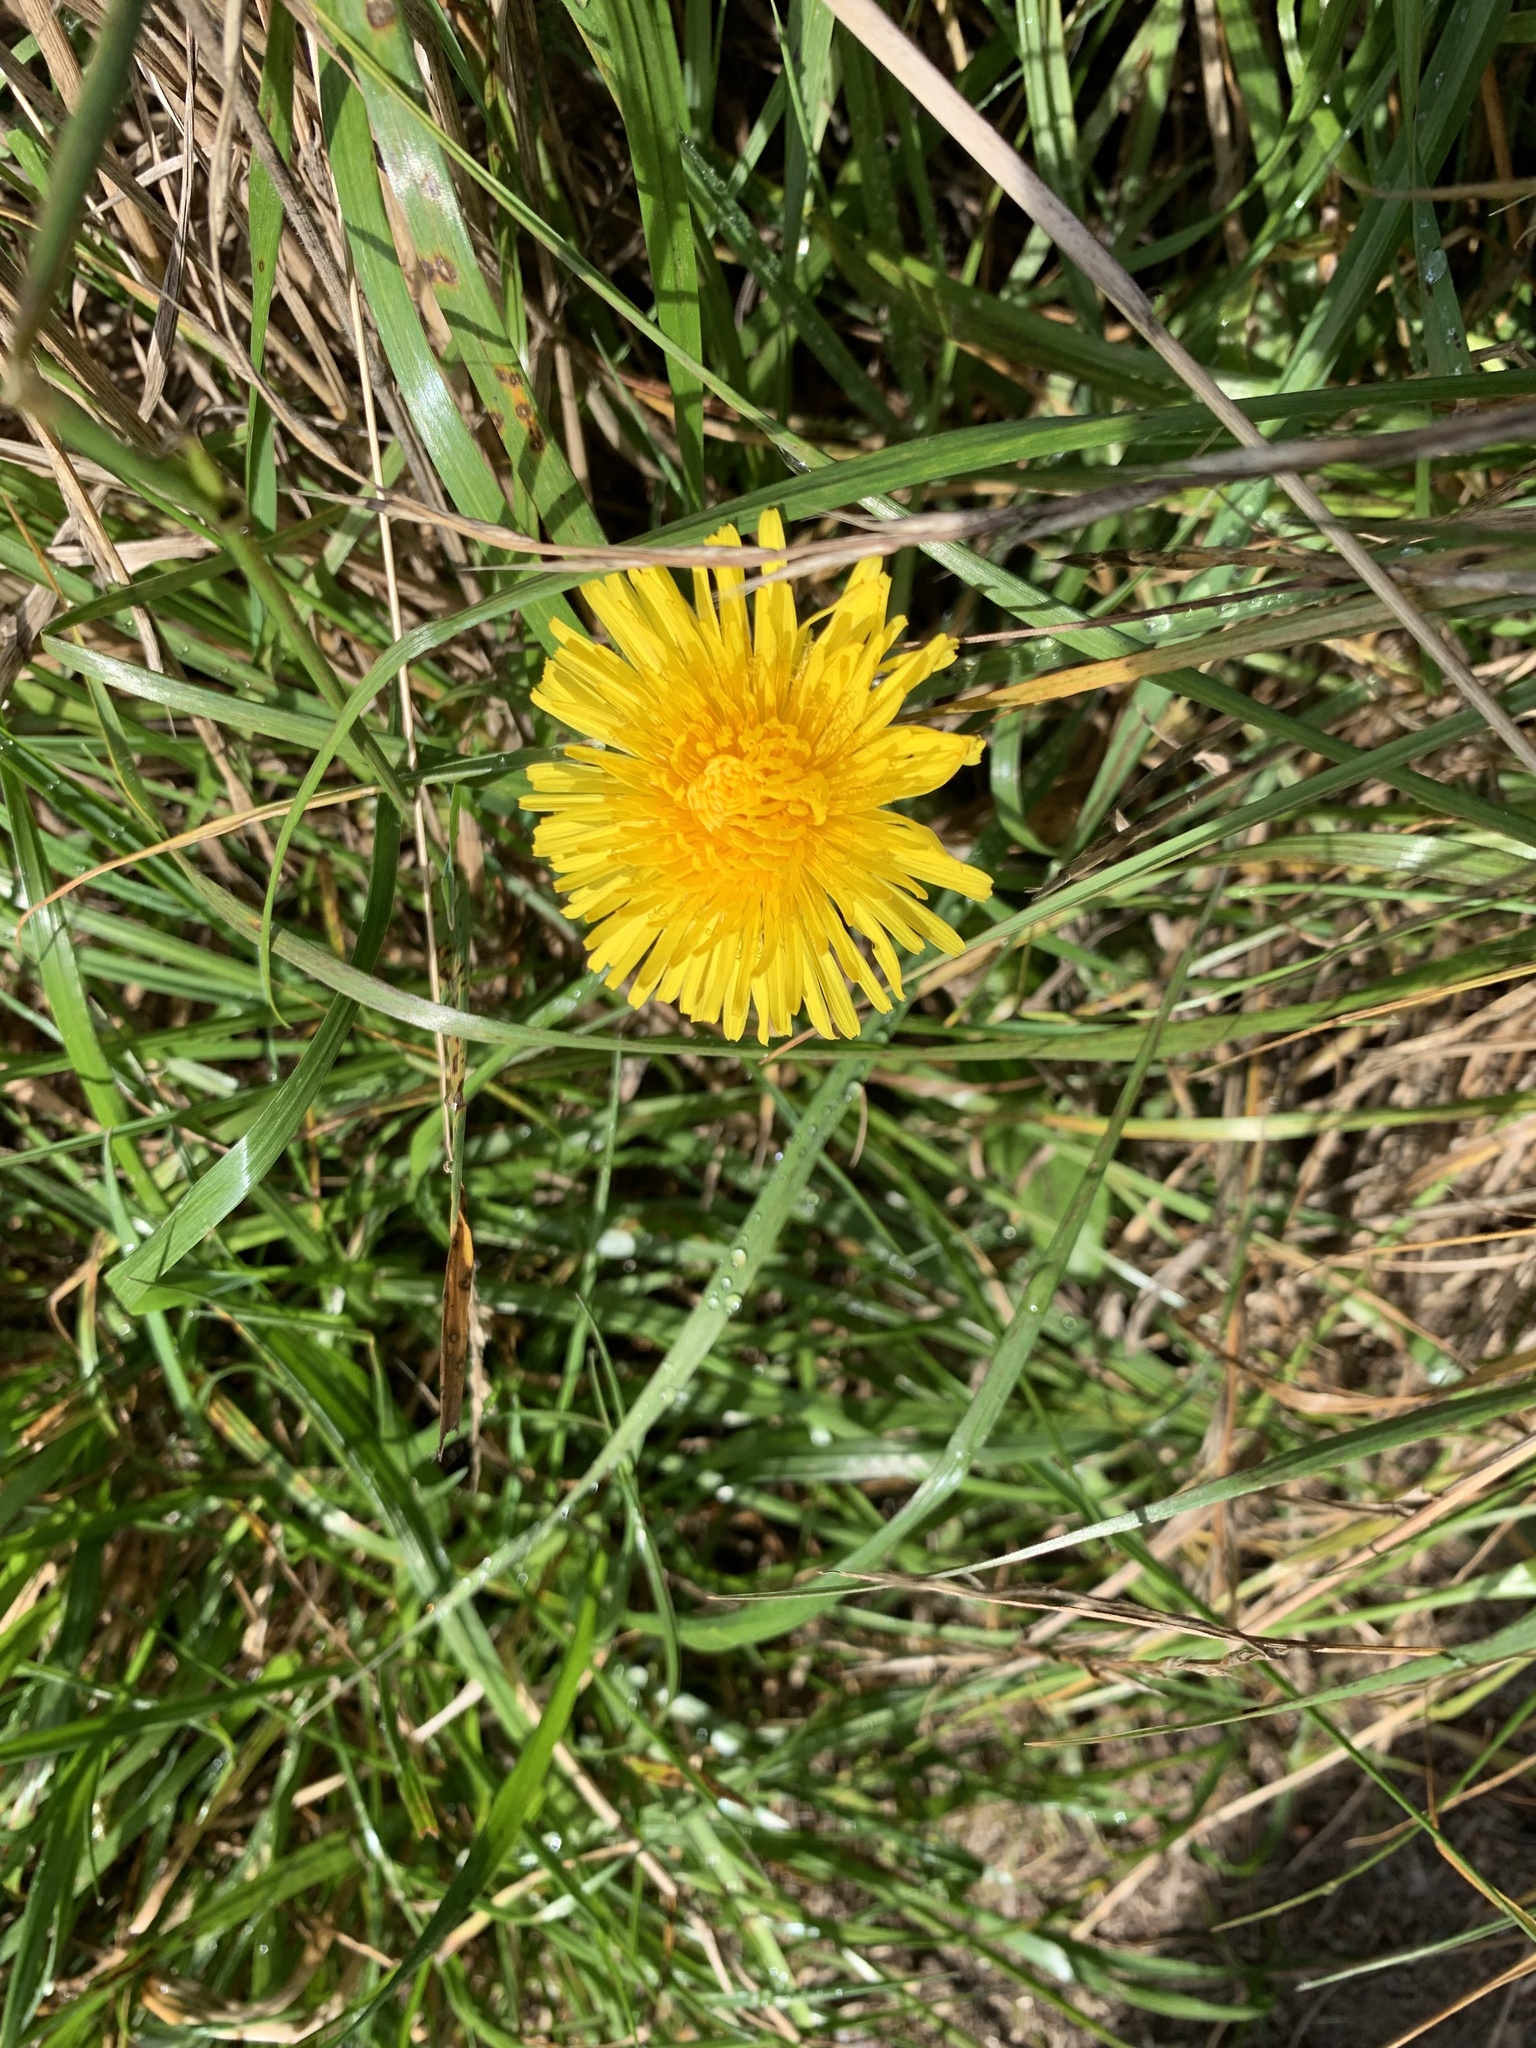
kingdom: Plantae
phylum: Tracheophyta
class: Magnoliopsida
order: Asterales
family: Asteraceae
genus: Taraxacum
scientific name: Taraxacum officinale
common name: Common dandelion
